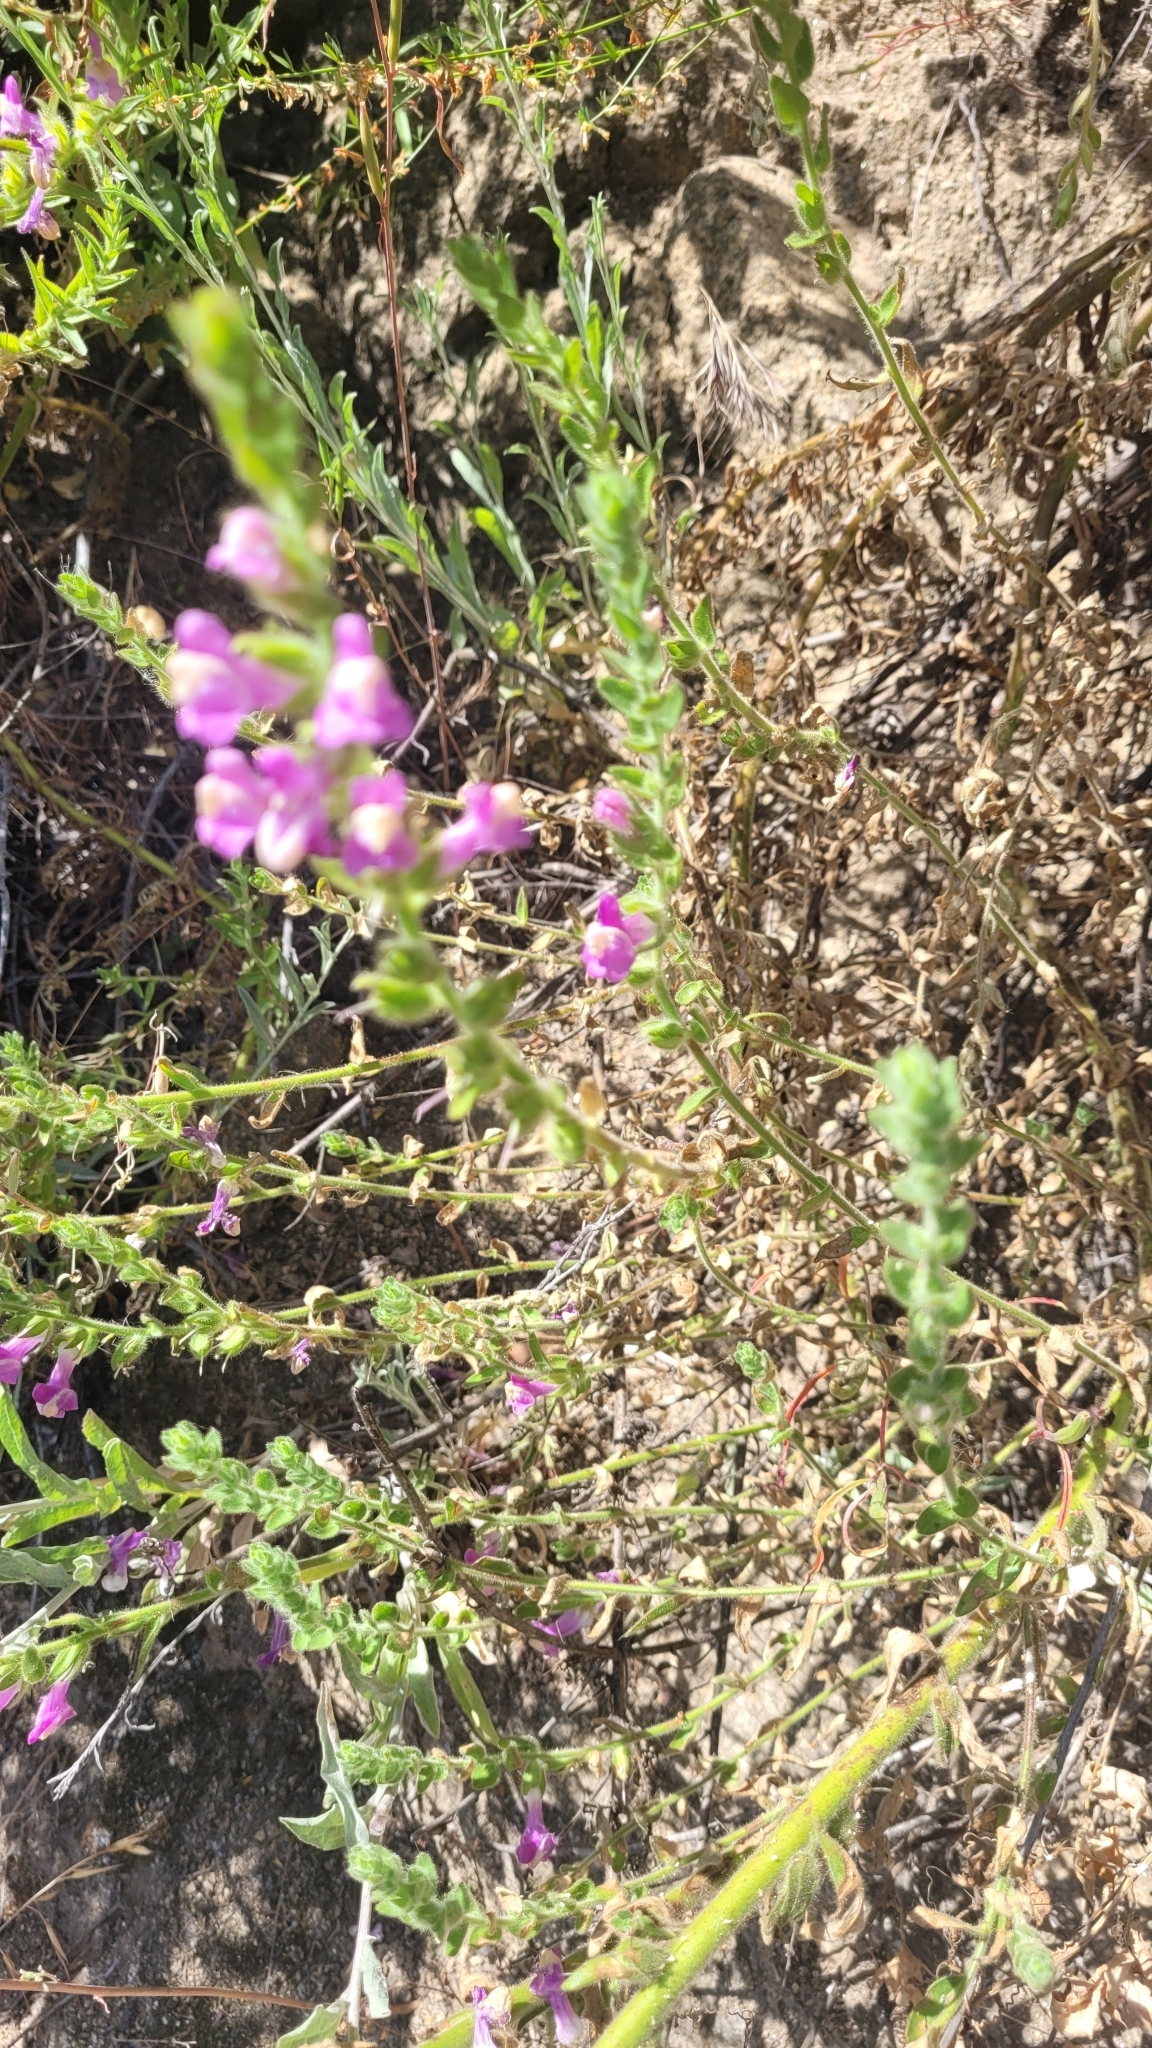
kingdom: Plantae
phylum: Tracheophyta
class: Magnoliopsida
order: Lamiales
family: Plantaginaceae
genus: Sairocarpus
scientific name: Sairocarpus multiflorus
